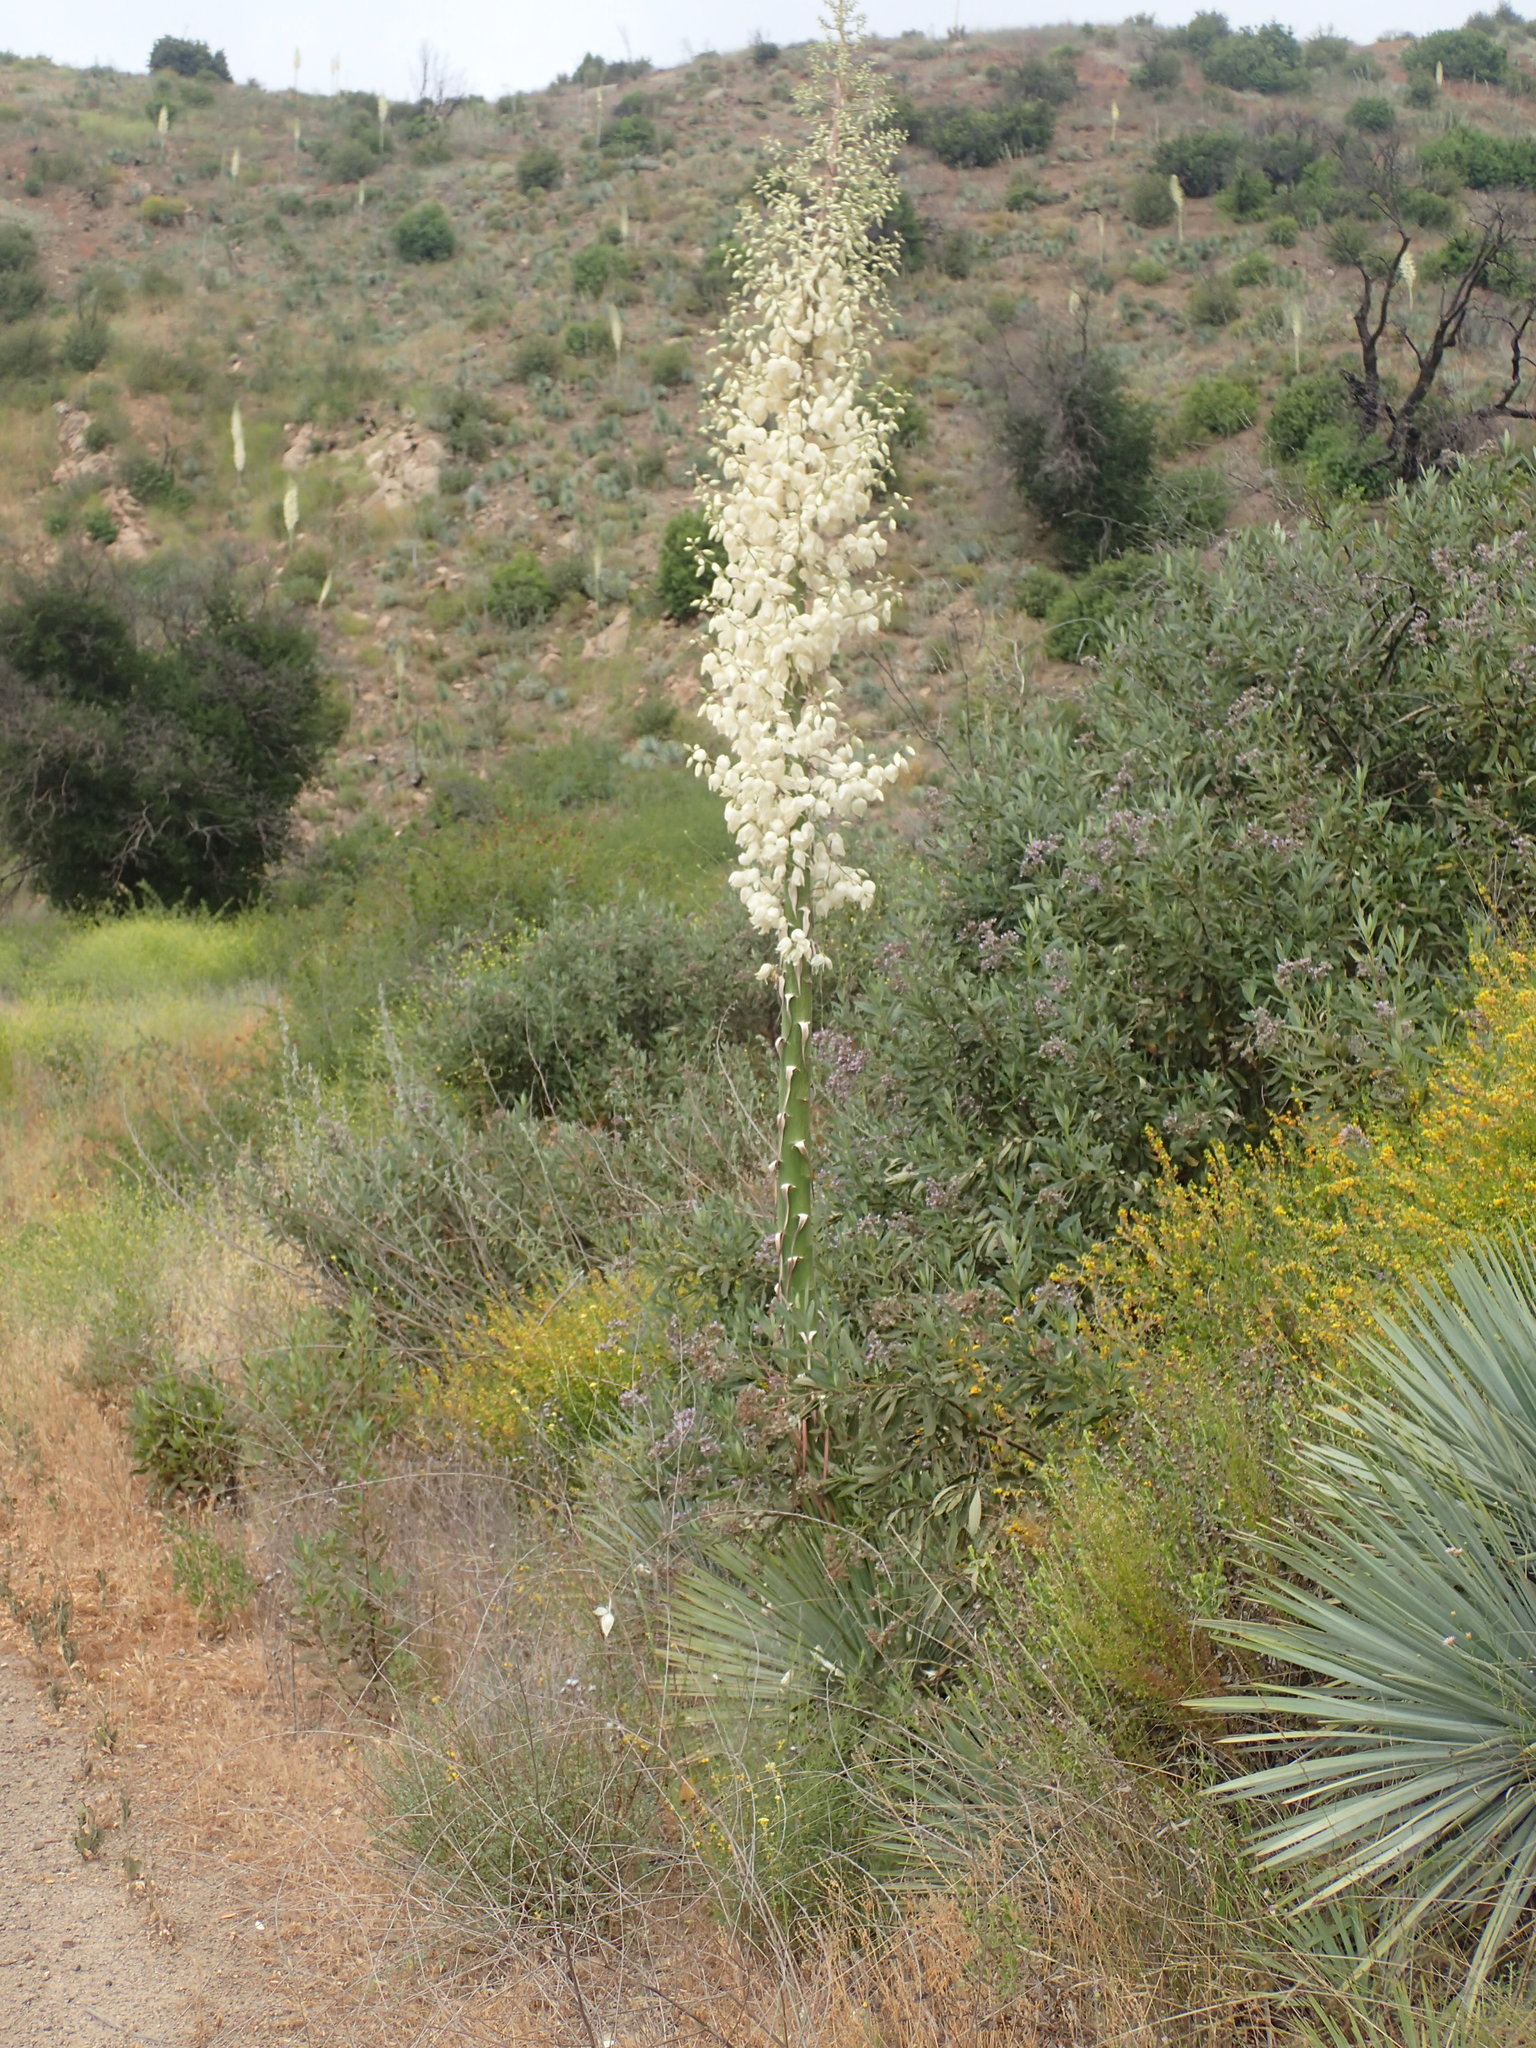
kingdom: Plantae
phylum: Tracheophyta
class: Liliopsida
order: Asparagales
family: Asparagaceae
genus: Hesperoyucca
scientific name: Hesperoyucca whipplei
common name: Our lord's-candle
